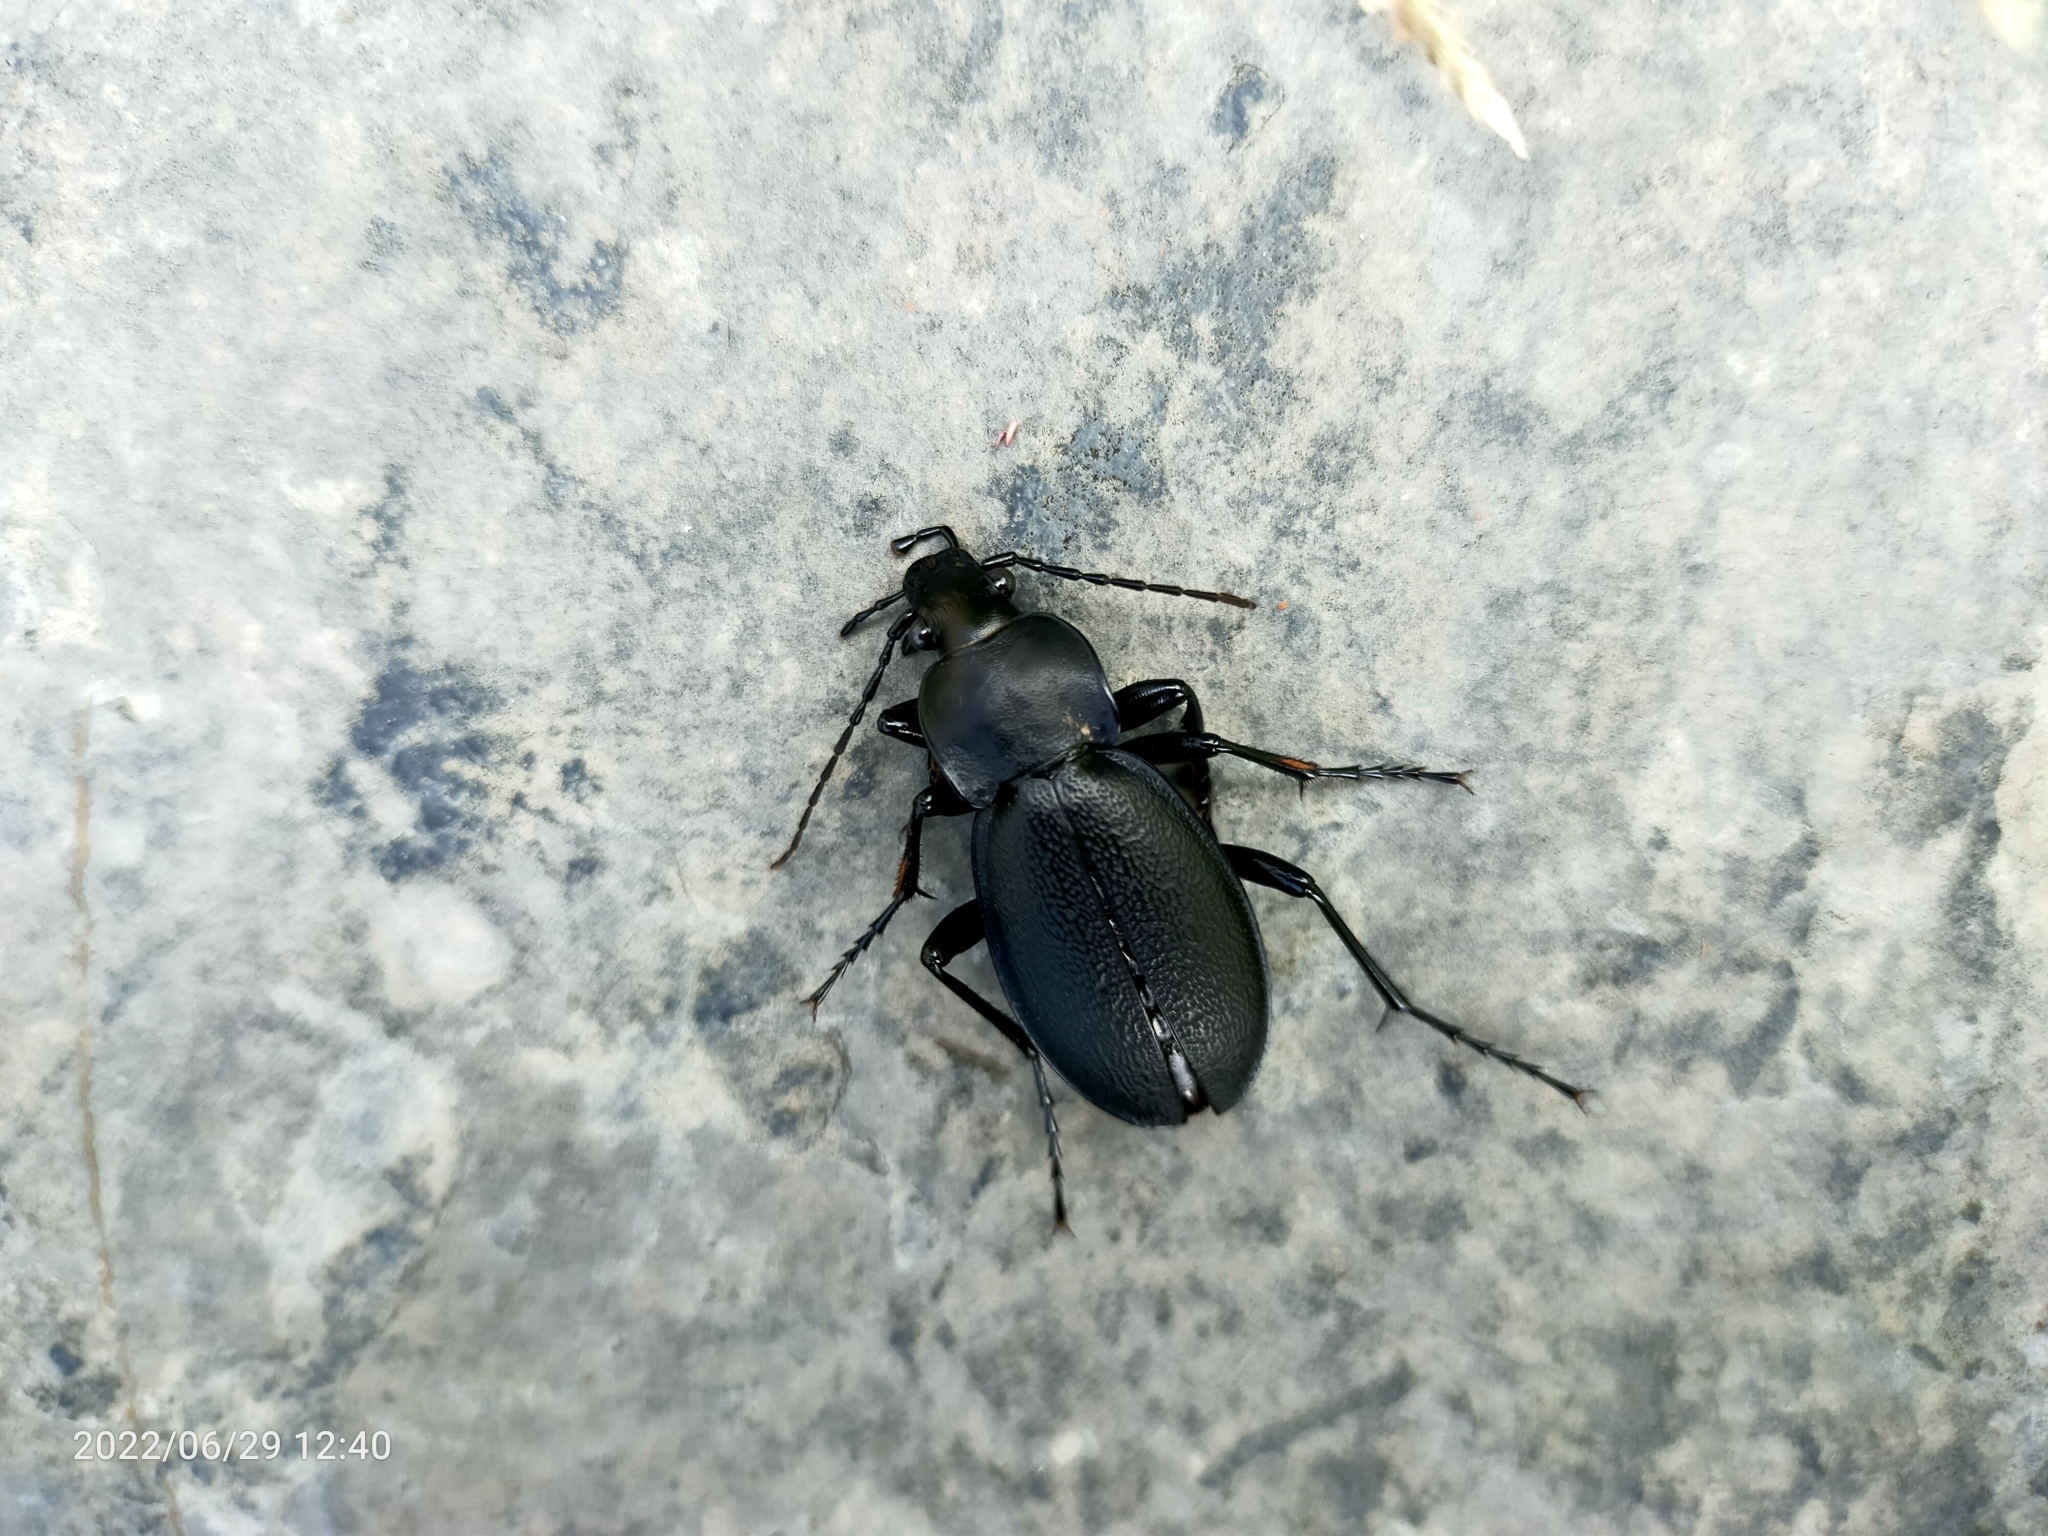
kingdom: Animalia
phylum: Arthropoda
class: Insecta
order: Coleoptera
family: Carabidae
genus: Carabus
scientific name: Carabus coriaceus
